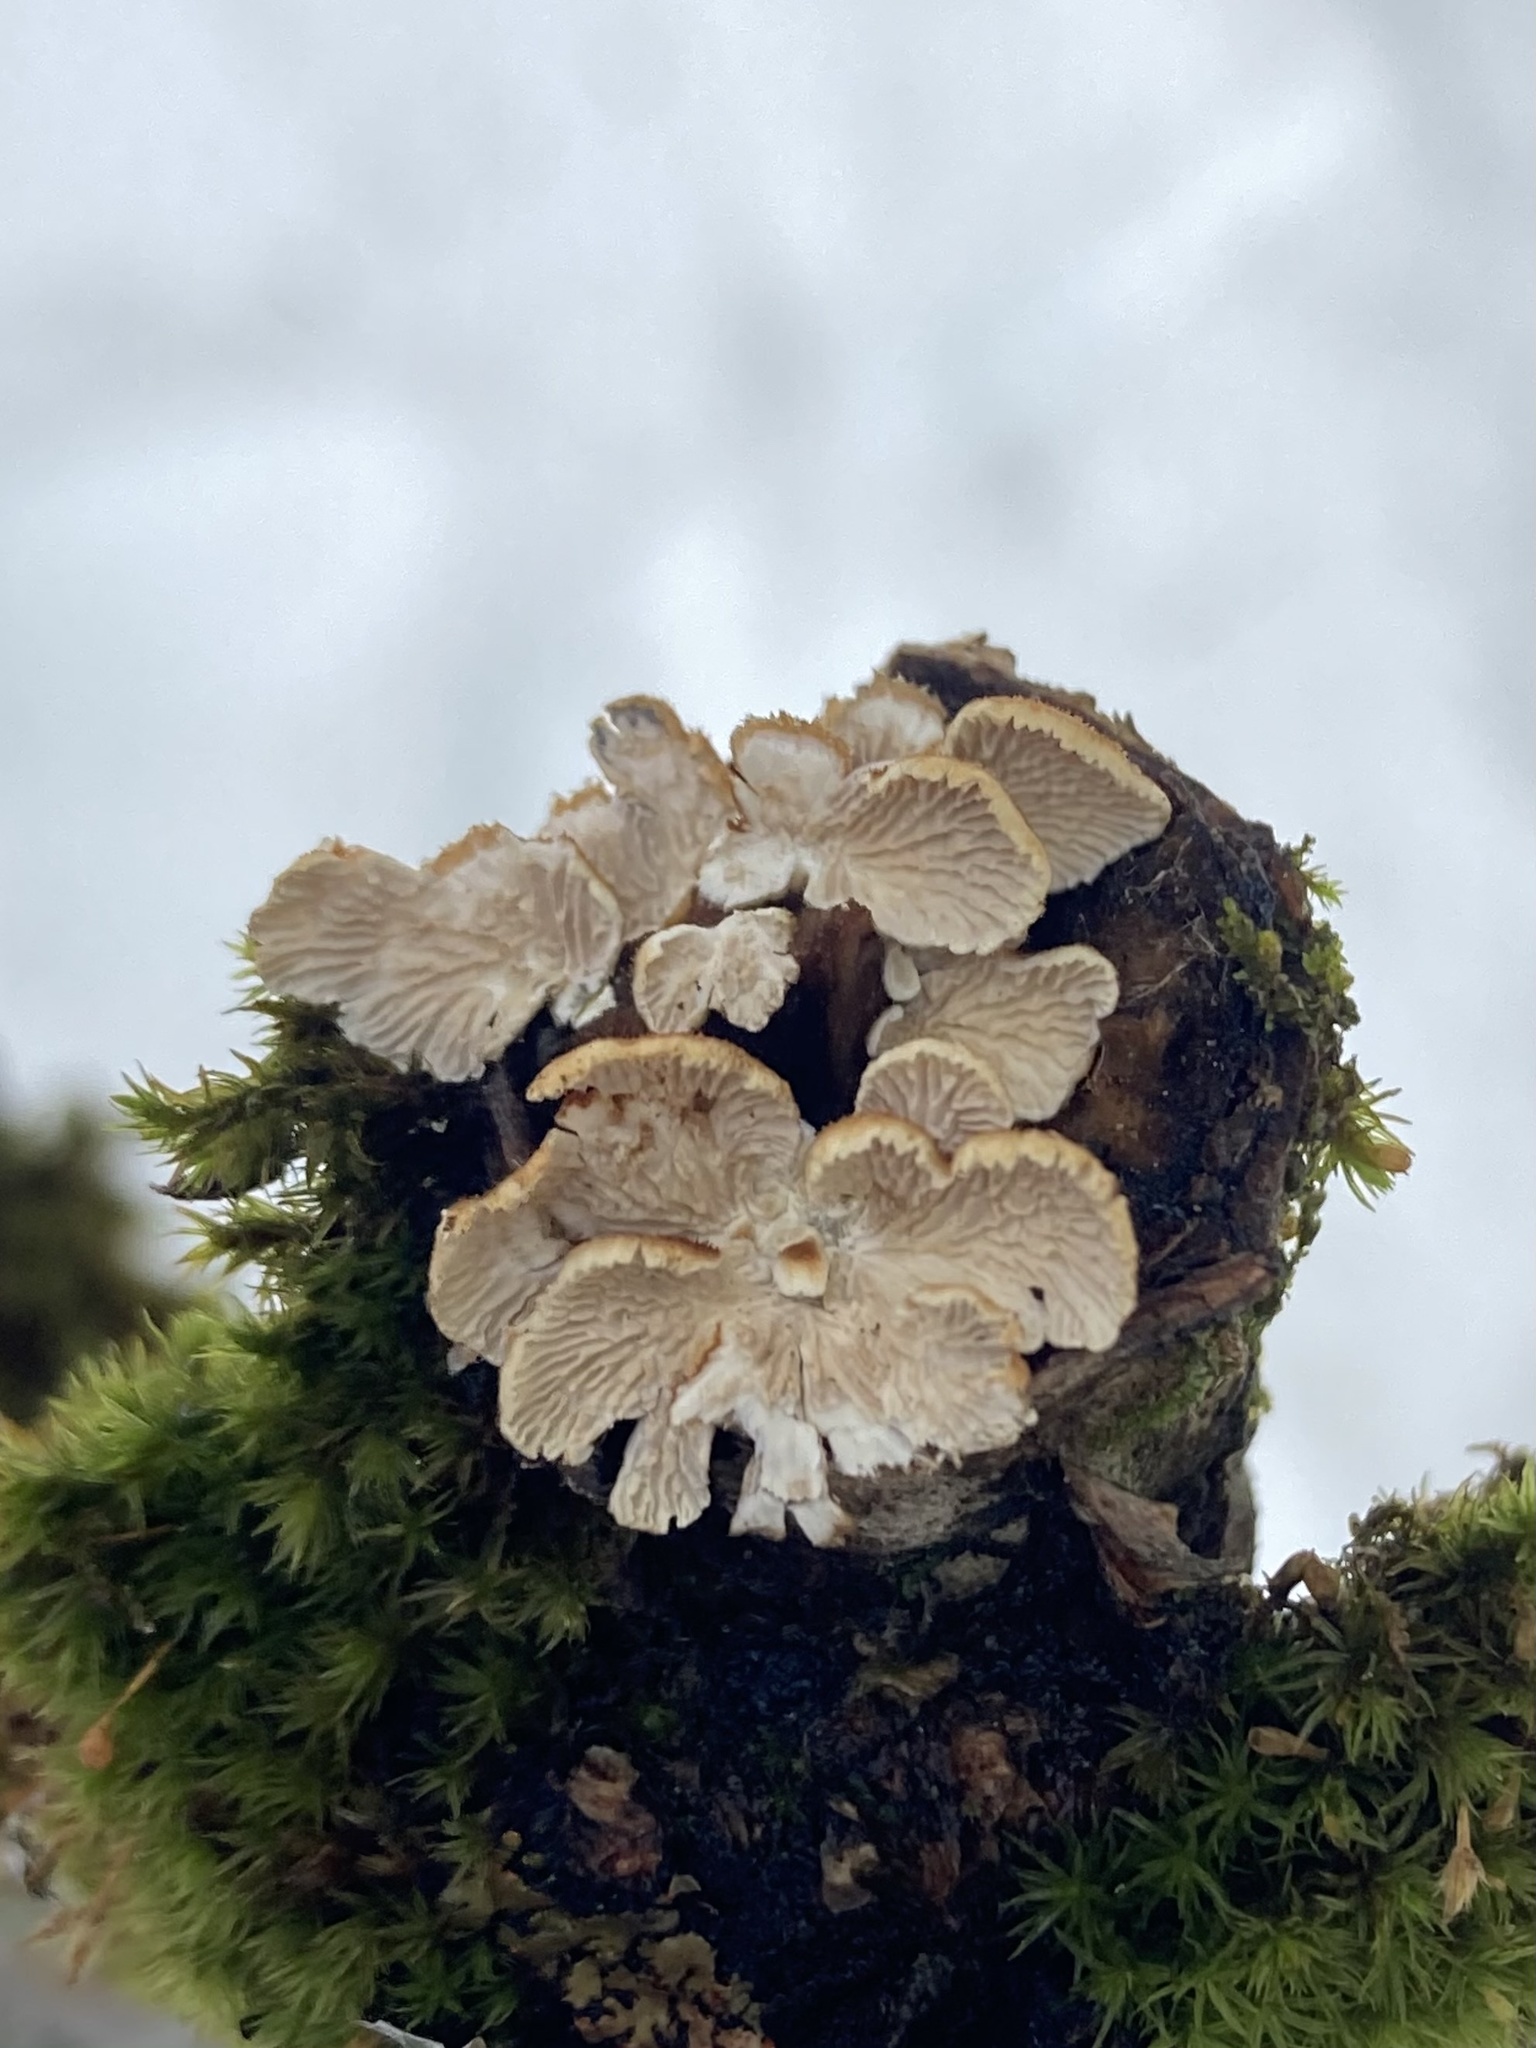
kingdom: Fungi
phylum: Basidiomycota
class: Agaricomycetes
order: Amylocorticiales
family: Amylocorticiaceae
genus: Plicaturopsis
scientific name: Plicaturopsis crispa
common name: Crimped gill
